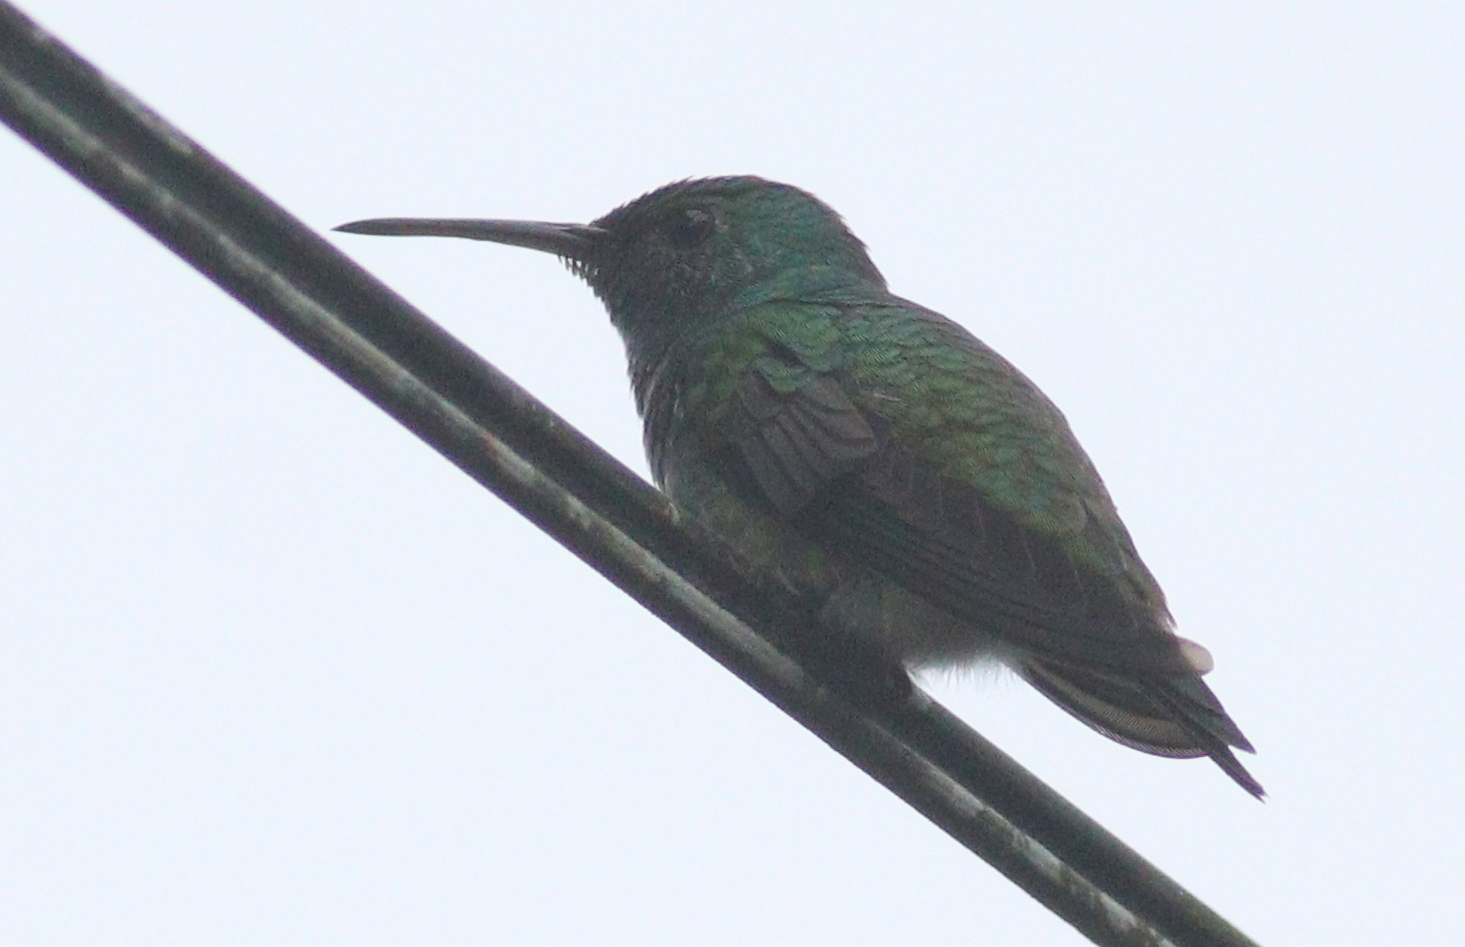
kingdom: Animalia
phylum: Chordata
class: Aves
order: Apodiformes
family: Trochilidae
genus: Chlorostilbon
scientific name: Chlorostilbon assimilis
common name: Garden emerald
